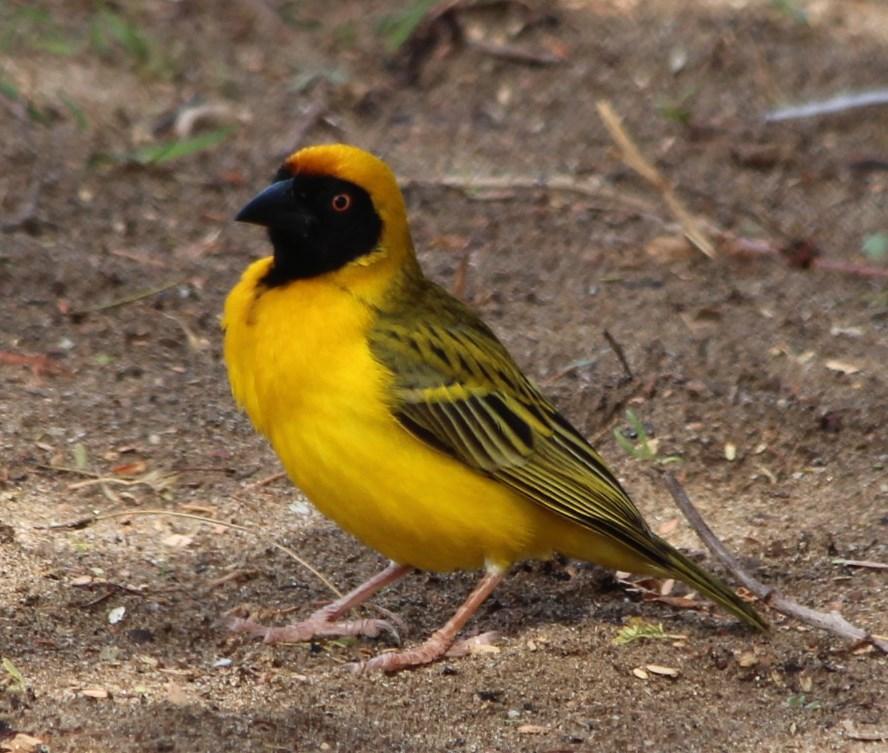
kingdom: Animalia
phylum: Chordata
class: Aves
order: Passeriformes
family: Ploceidae
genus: Ploceus
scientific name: Ploceus velatus
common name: Southern masked weaver
